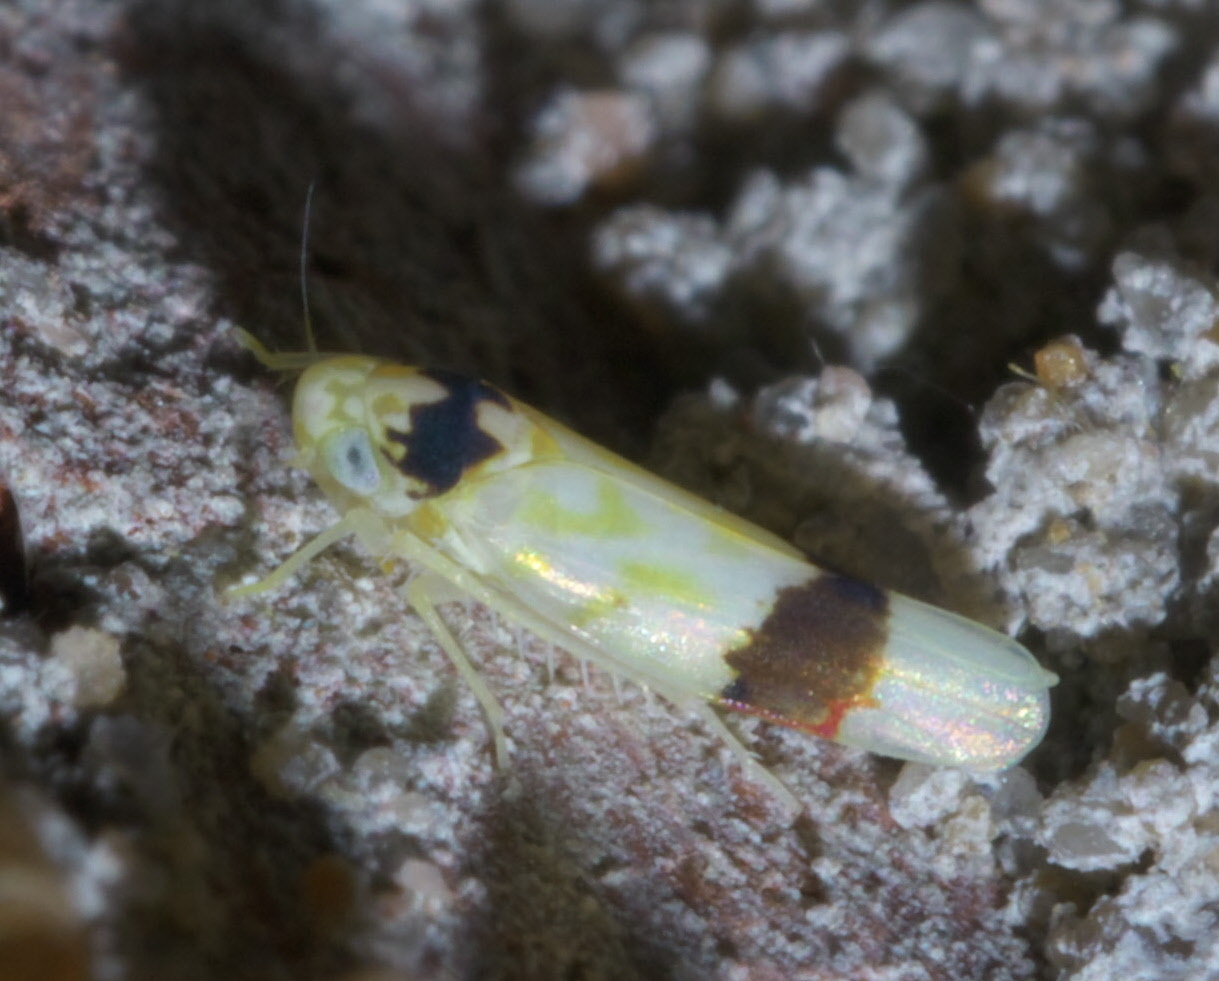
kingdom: Animalia
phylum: Arthropoda
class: Insecta
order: Hemiptera
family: Cicadellidae
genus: Eratoneura
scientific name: Eratoneura morgani
